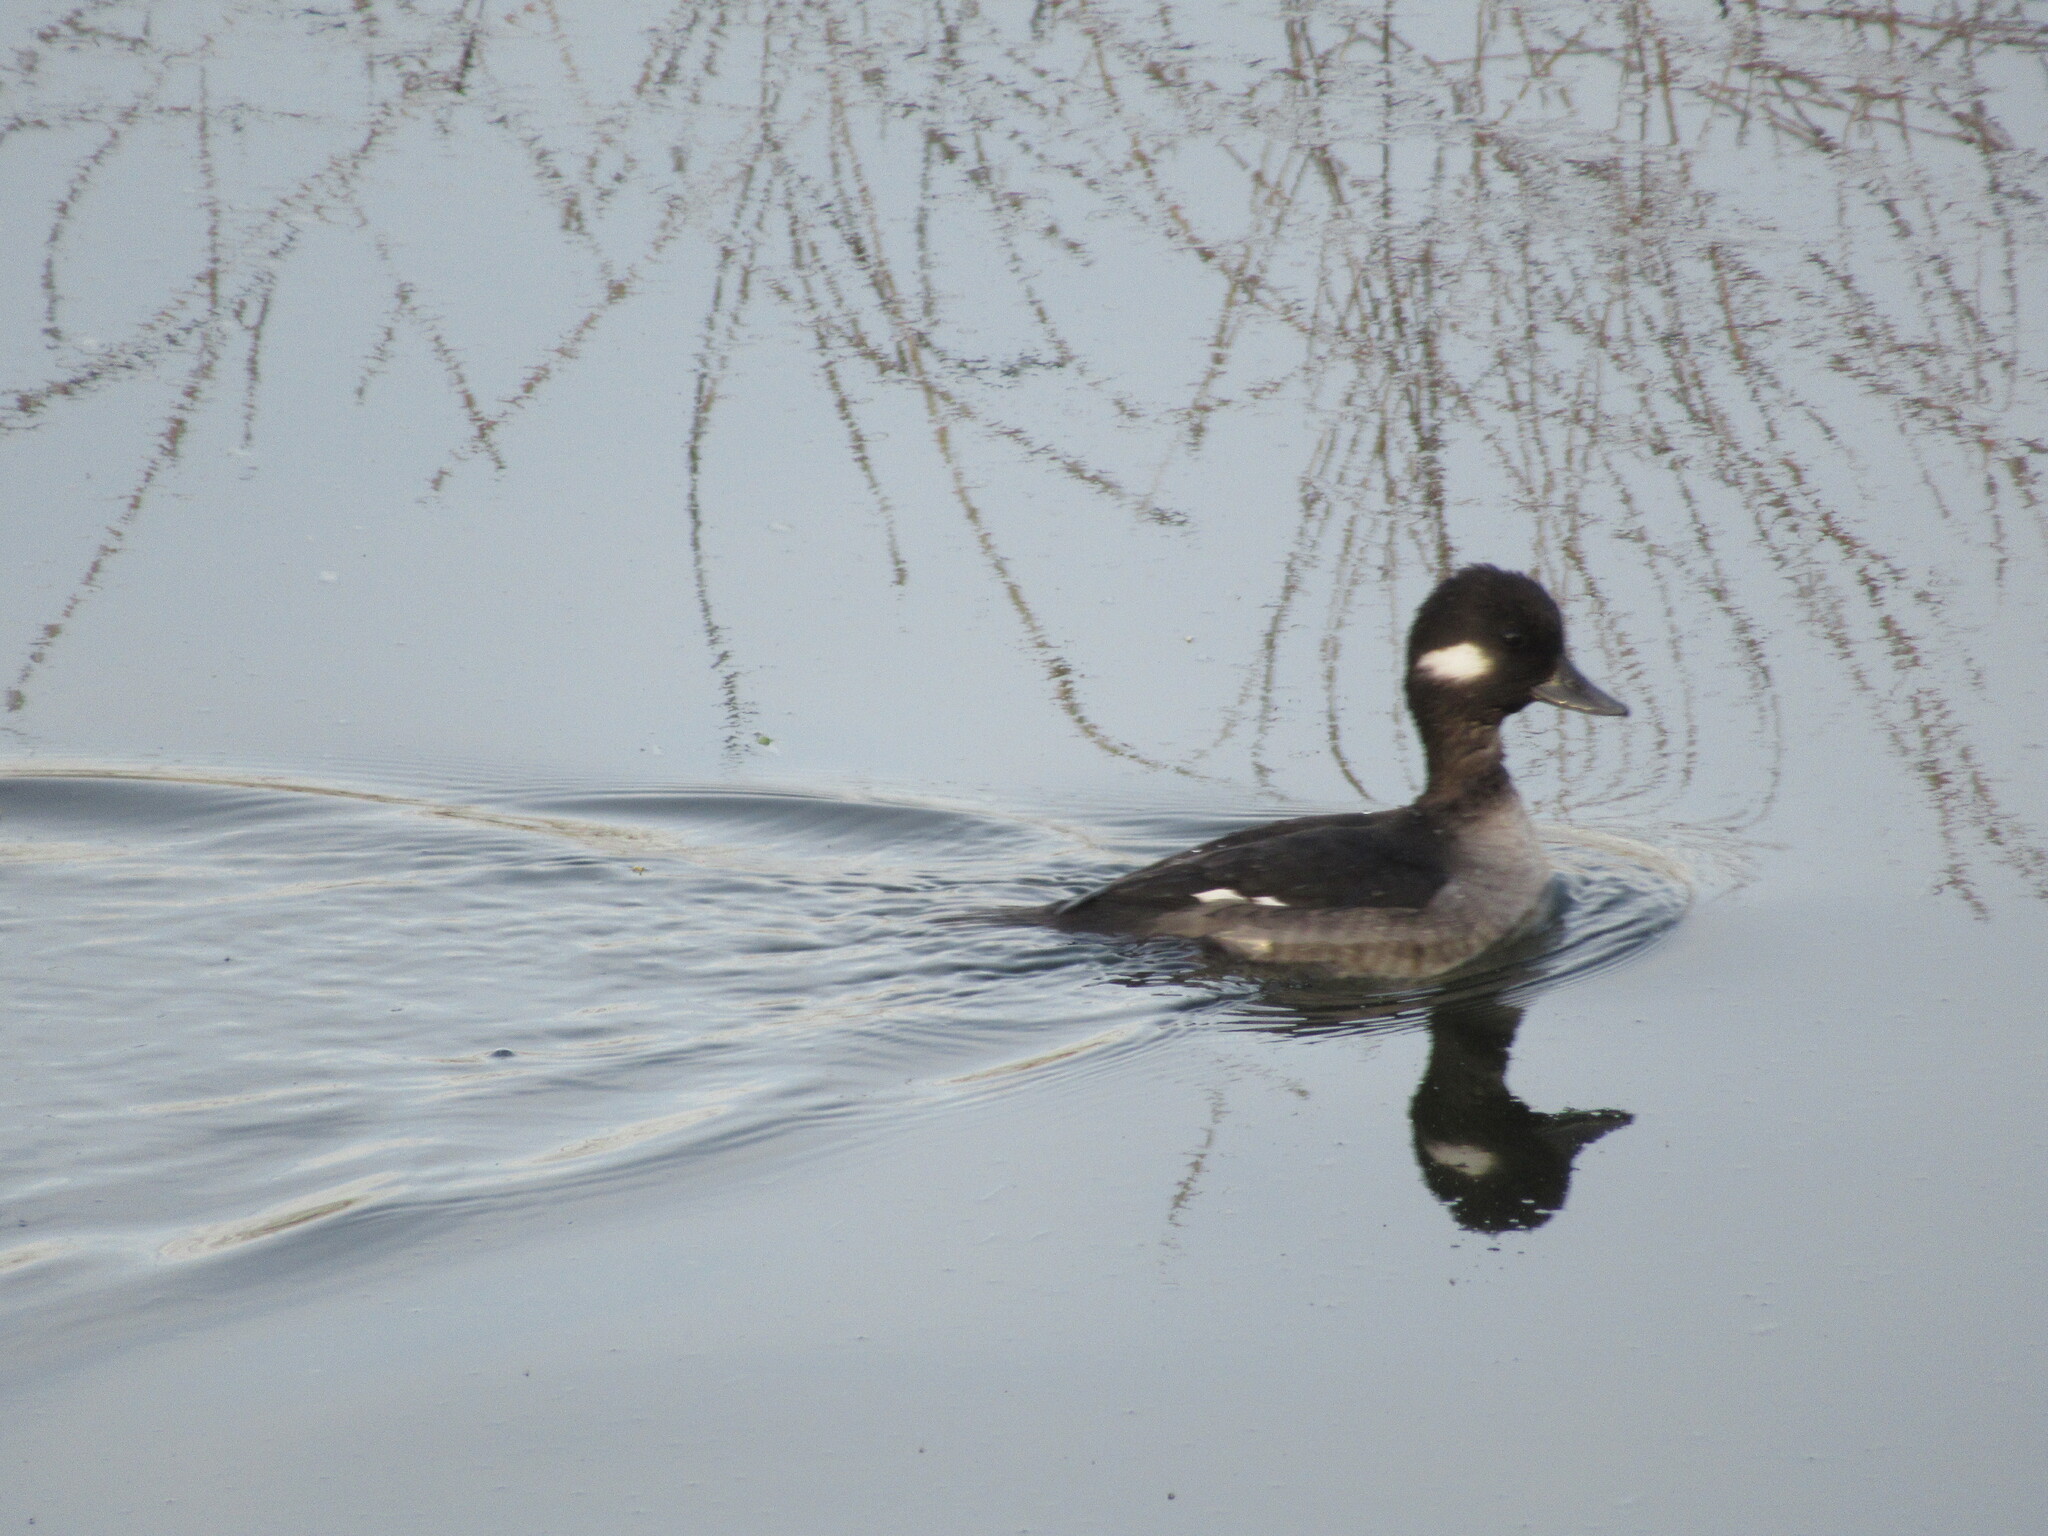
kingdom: Animalia
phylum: Chordata
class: Aves
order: Anseriformes
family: Anatidae
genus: Bucephala
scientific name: Bucephala albeola
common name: Bufflehead
